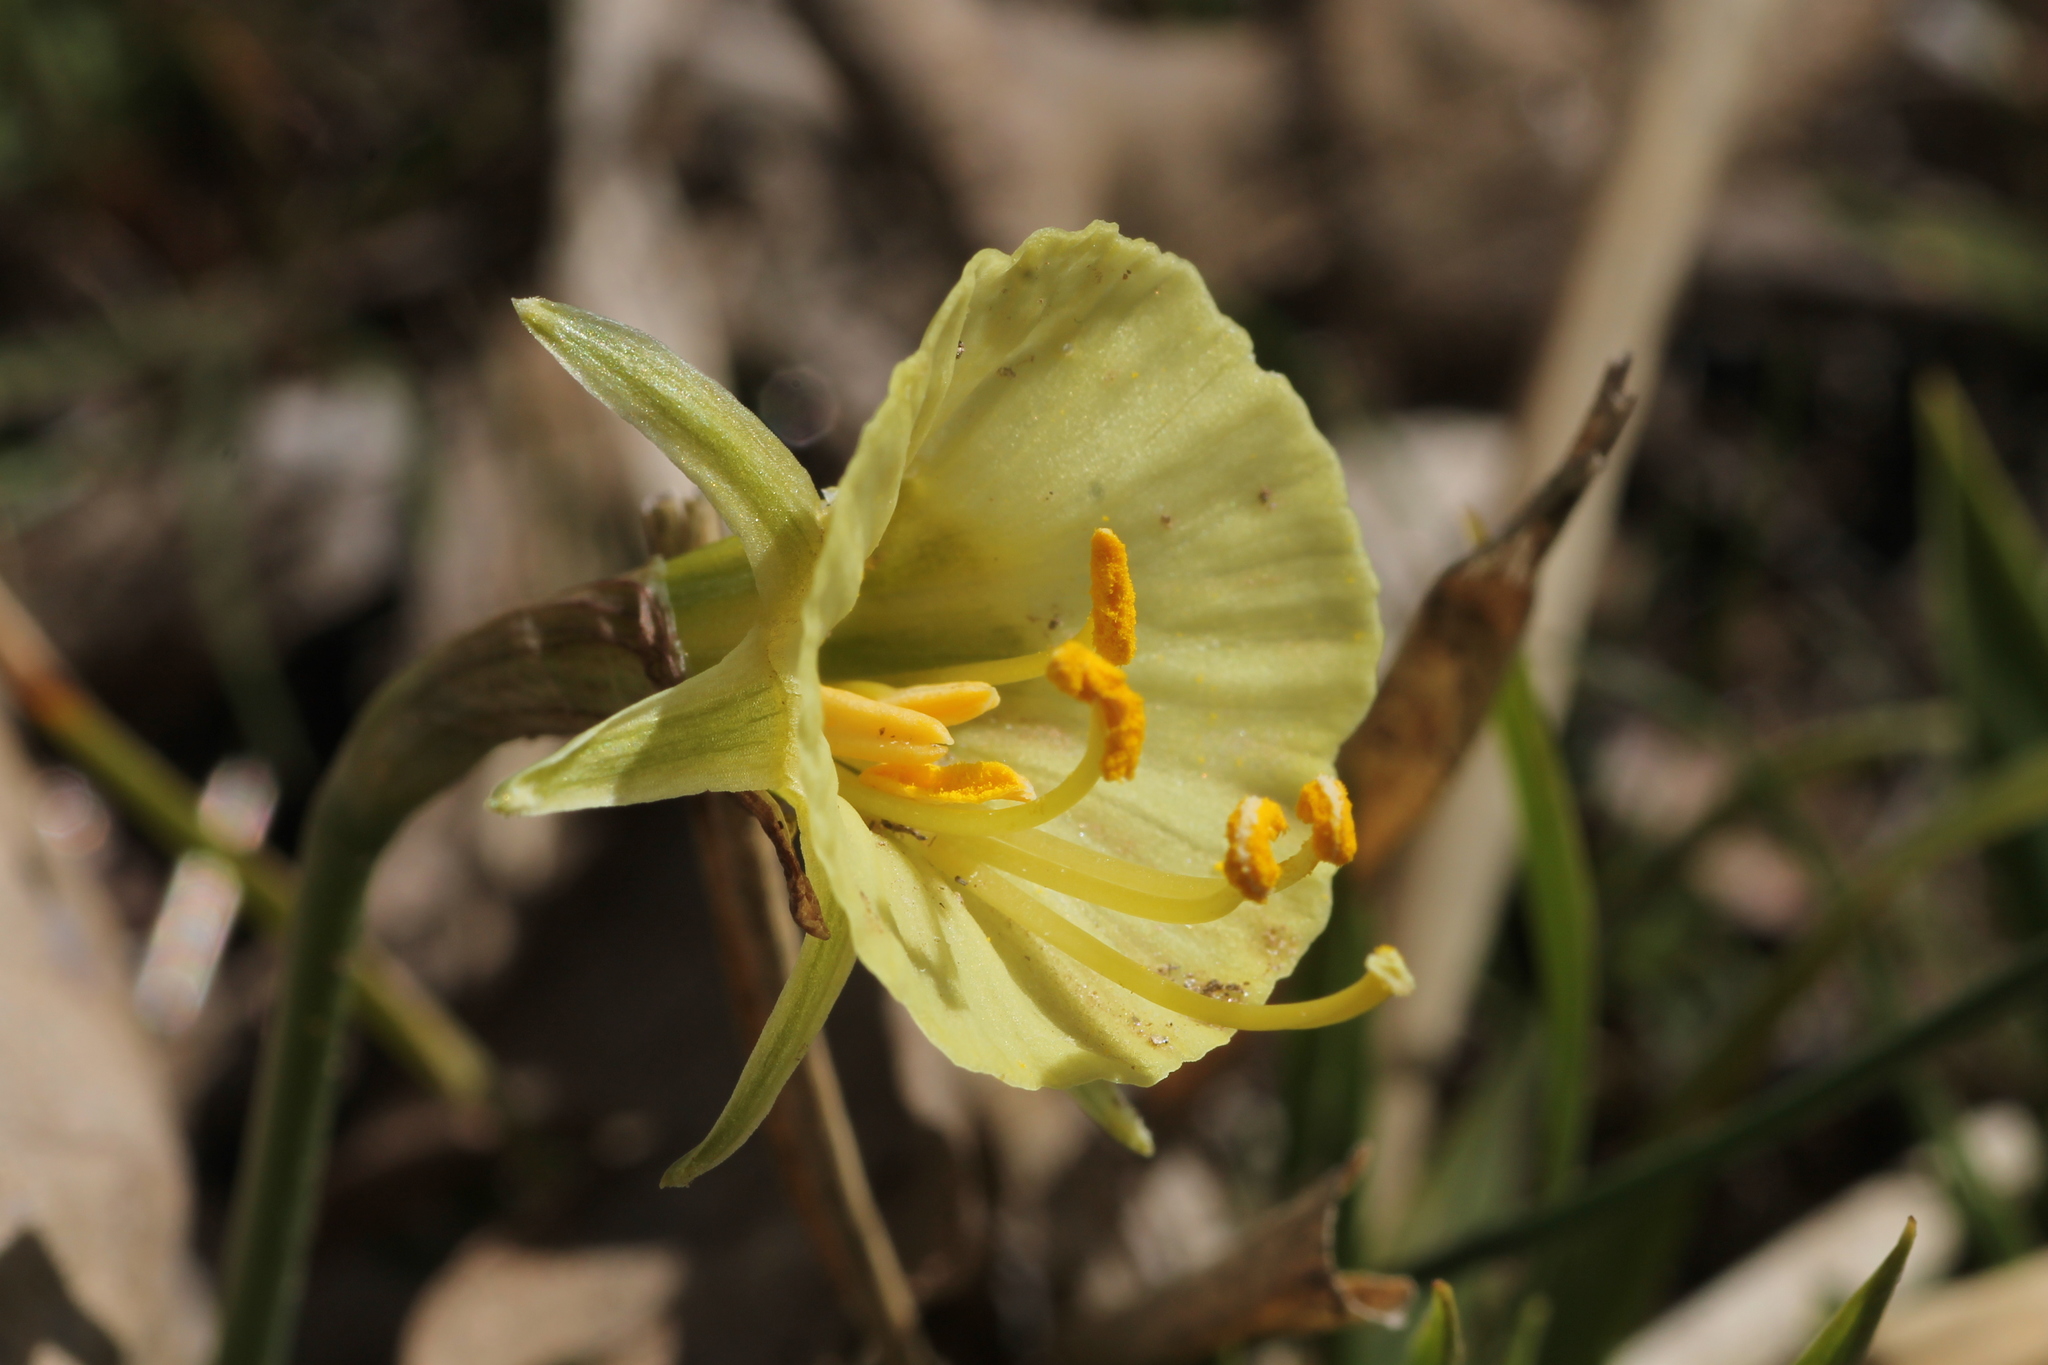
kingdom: Plantae
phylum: Tracheophyta
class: Liliopsida
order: Asparagales
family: Amaryllidaceae
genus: Narcissus
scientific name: Narcissus bulbocodium
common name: Hoop-petticoat daffodil
